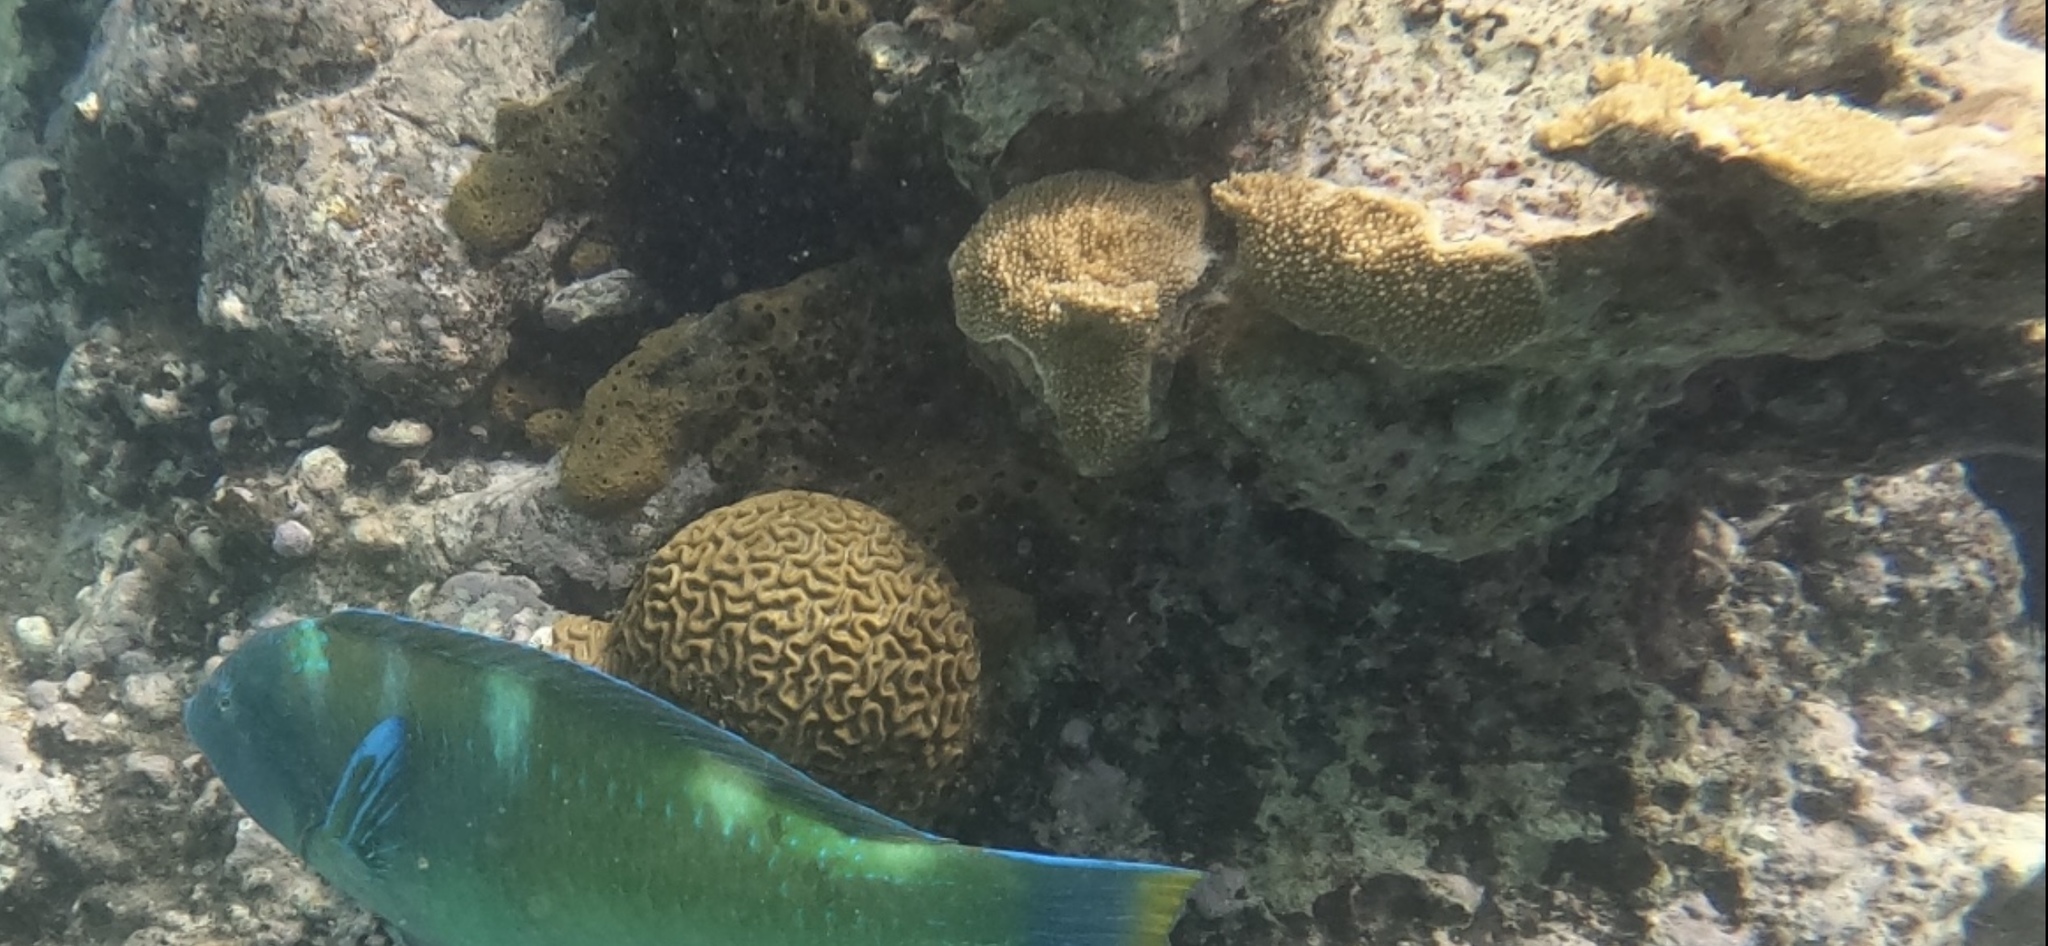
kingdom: Animalia
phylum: Cnidaria
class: Anthozoa
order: Scleractinia
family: Acroporidae
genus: Acropora
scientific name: Acropora palmata
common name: Elkhorn coral
